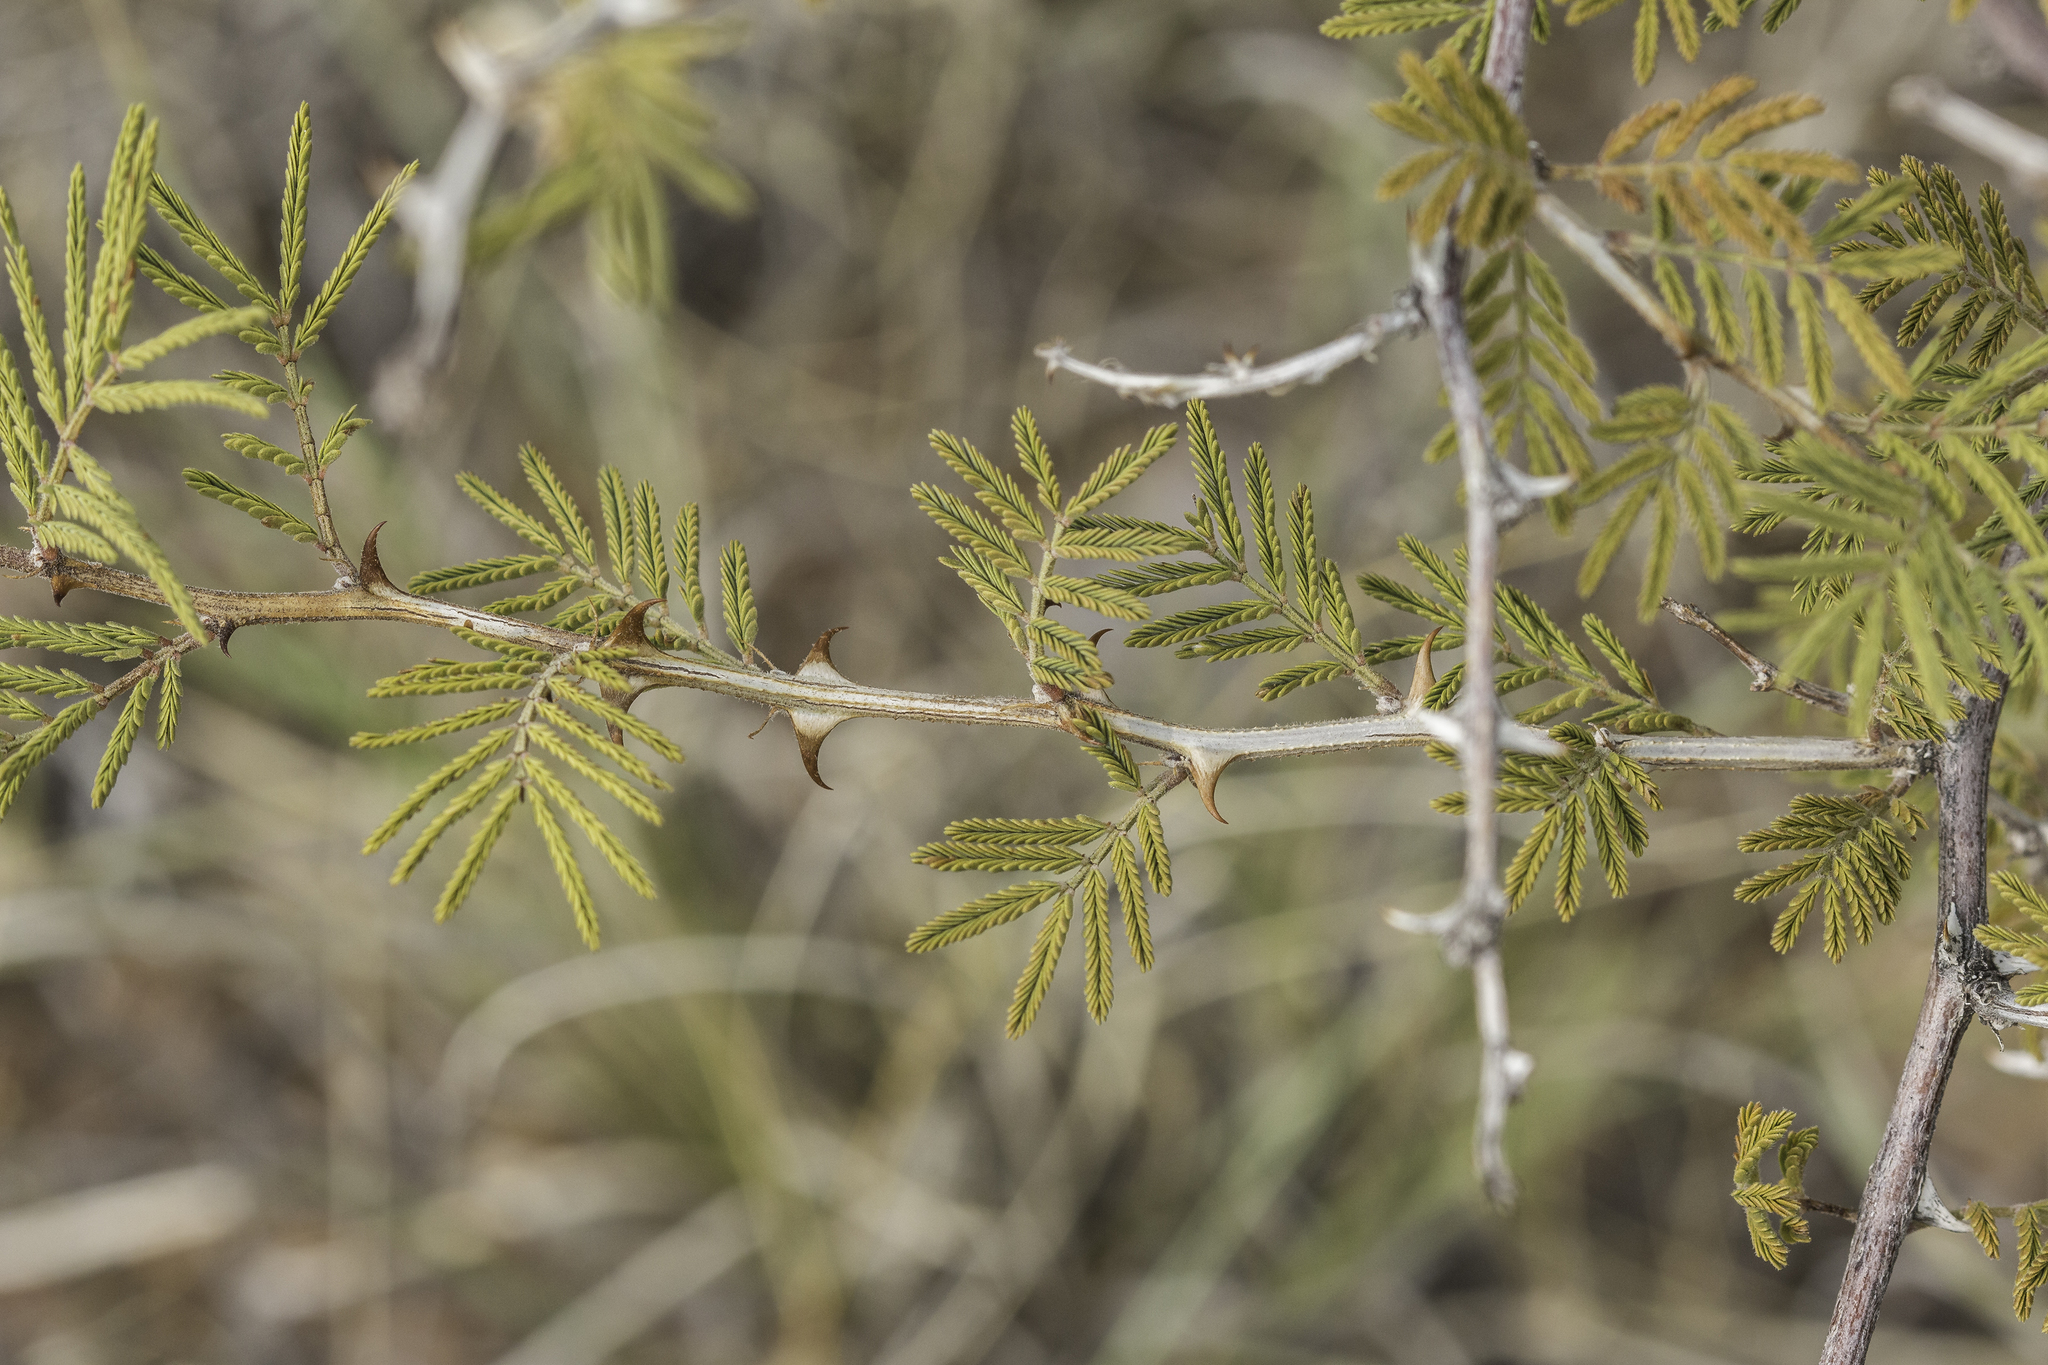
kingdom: Plantae
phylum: Tracheophyta
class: Magnoliopsida
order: Fabales
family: Fabaceae
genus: Mimosa
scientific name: Mimosa aculeaticarpa
